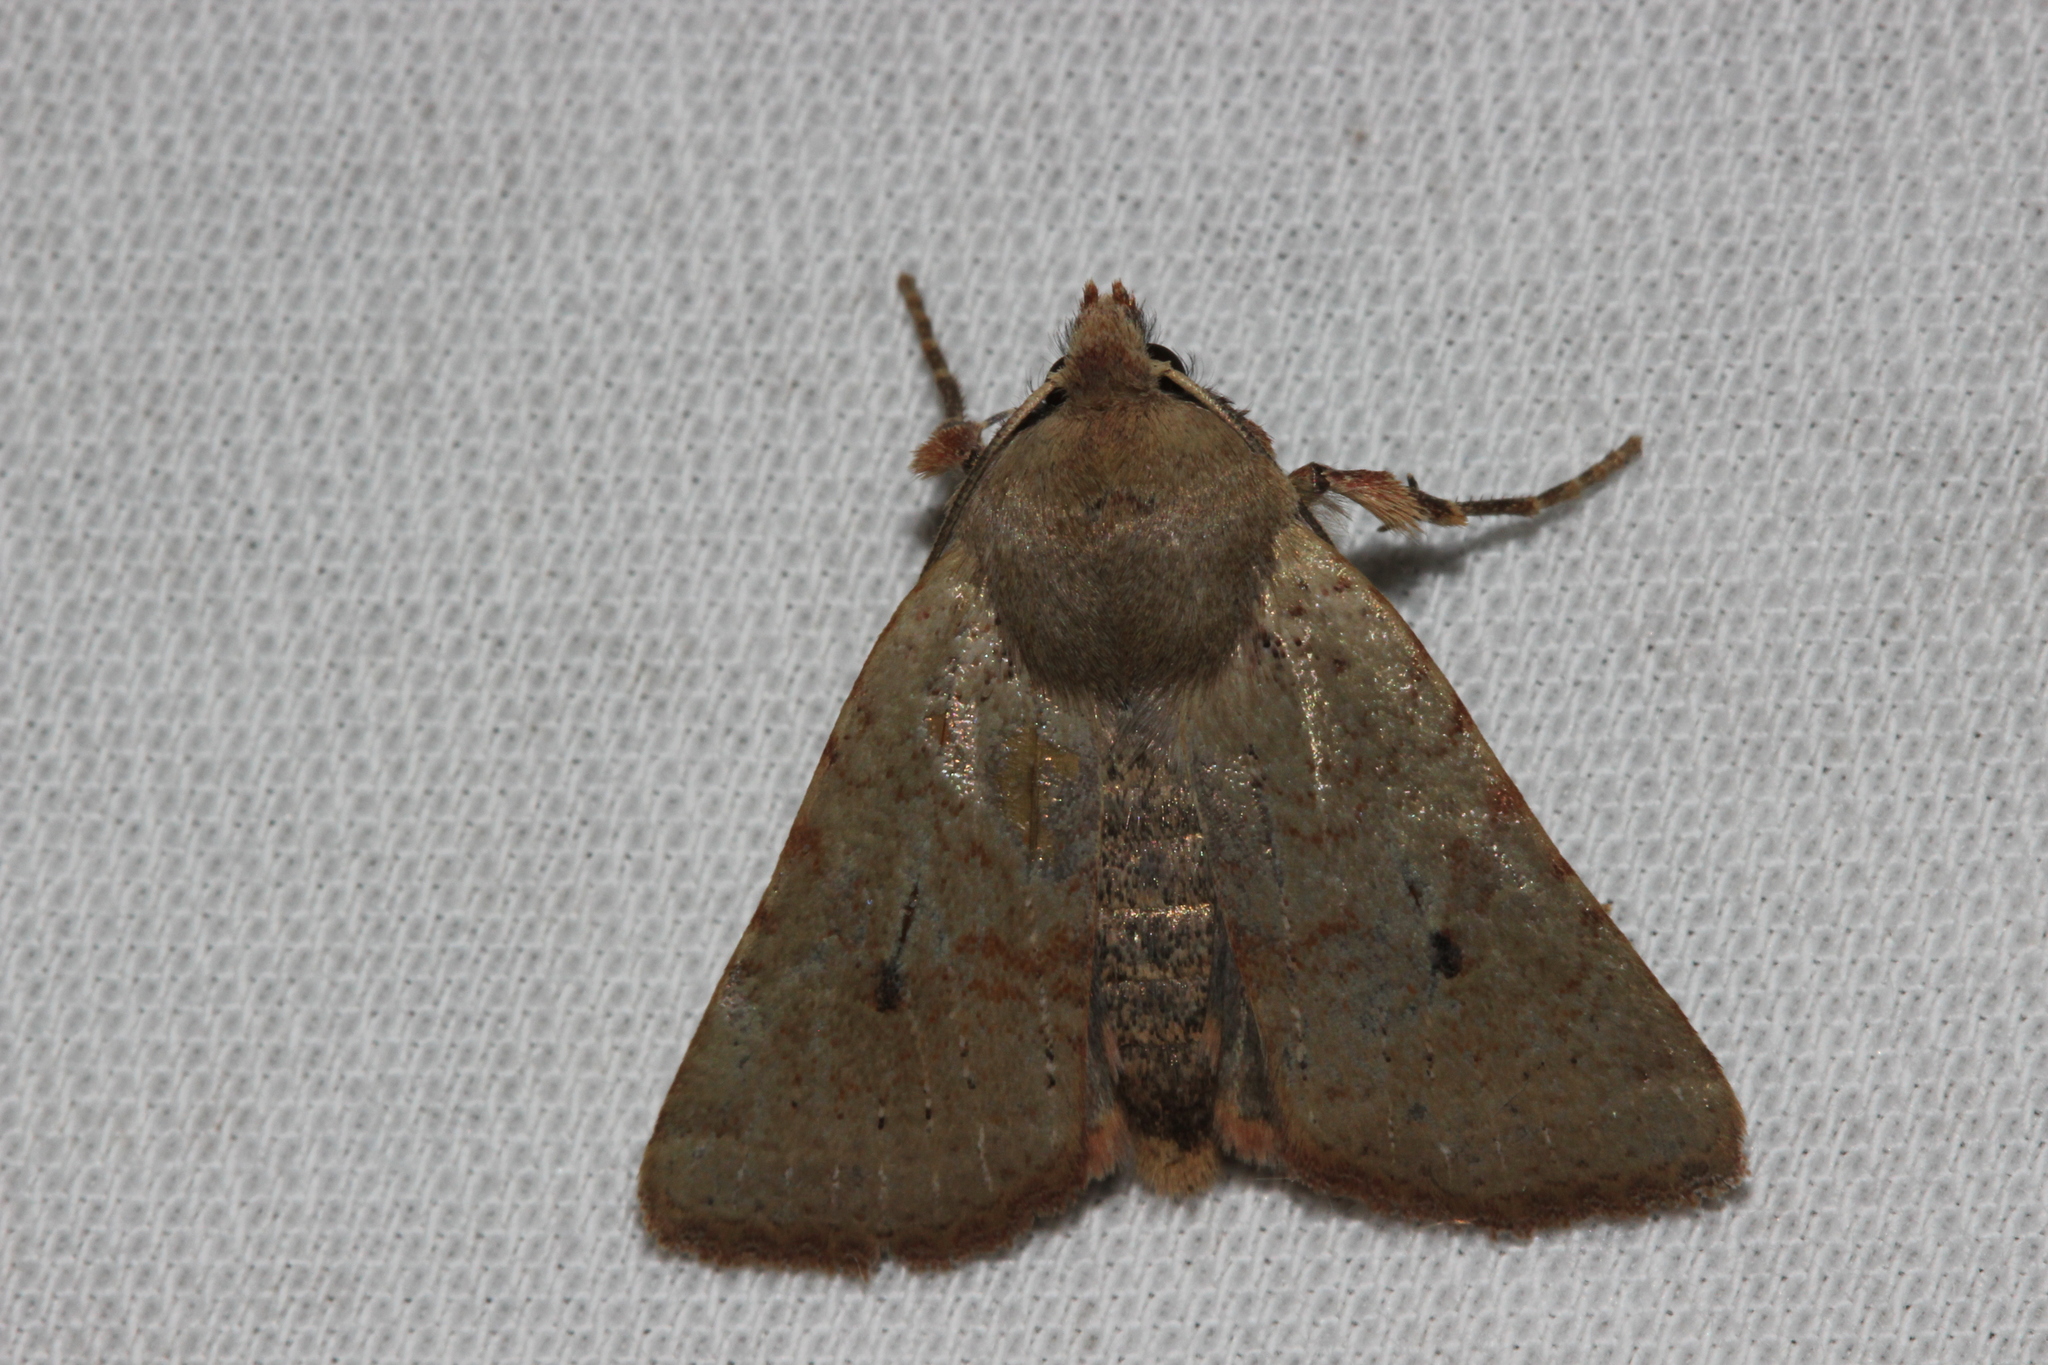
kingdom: Animalia
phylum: Arthropoda
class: Insecta
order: Lepidoptera
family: Noctuidae
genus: Agrochola
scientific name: Agrochola ruticilla
